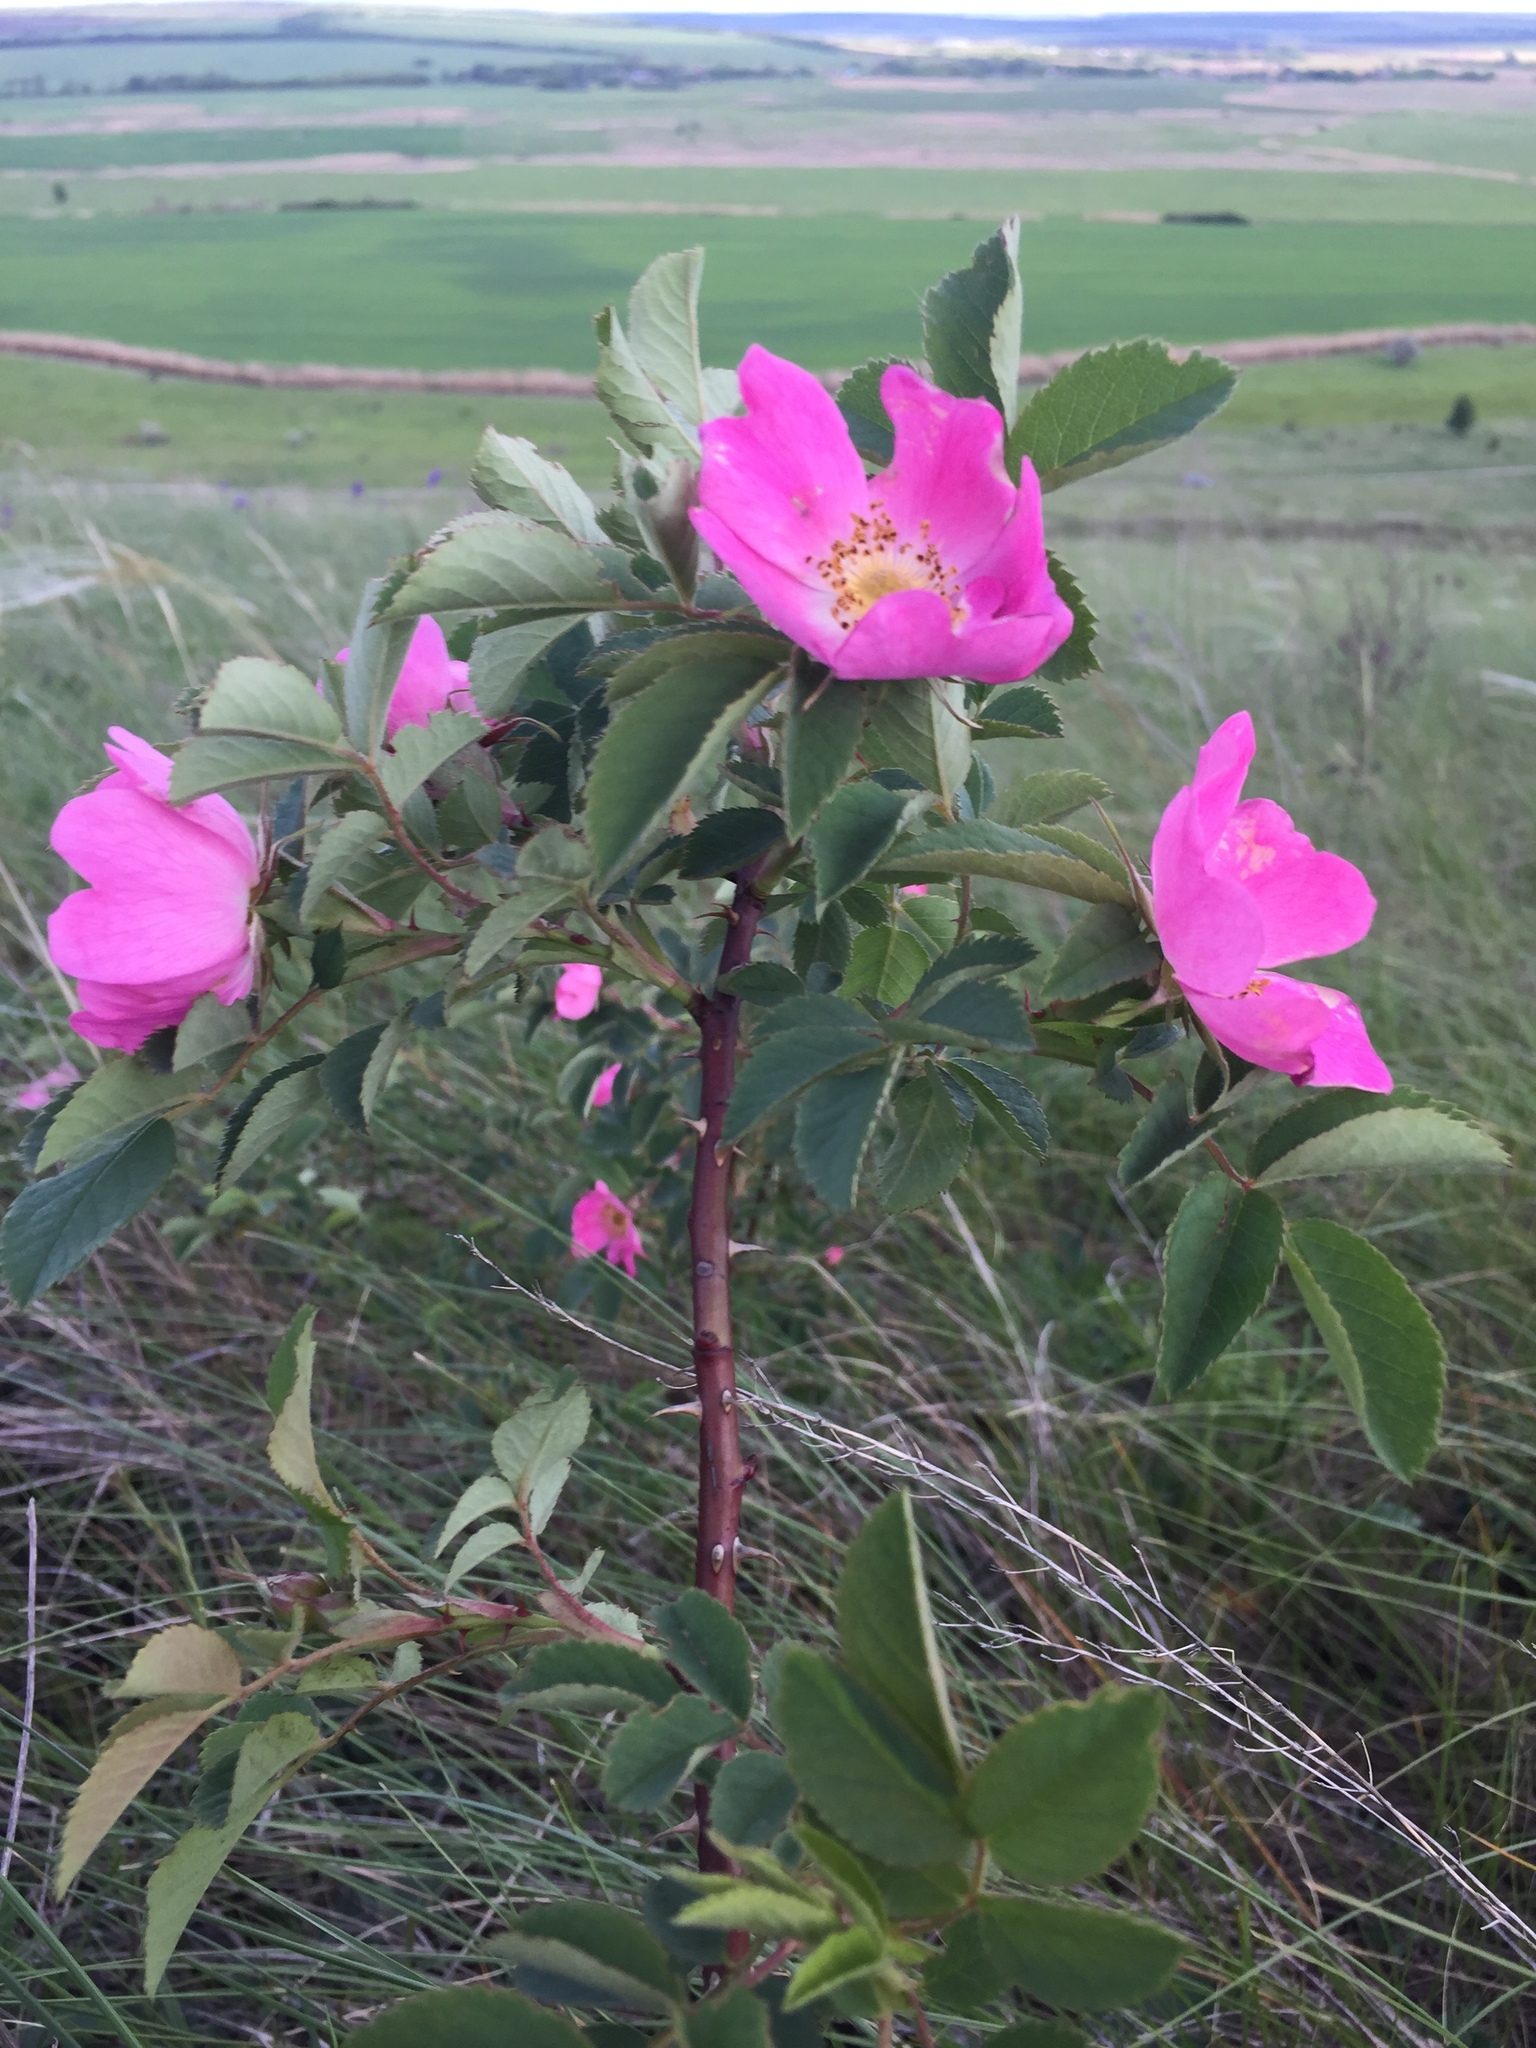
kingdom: Plantae
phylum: Tracheophyta
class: Magnoliopsida
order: Rosales
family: Rosaceae
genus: Rosa
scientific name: Rosa
